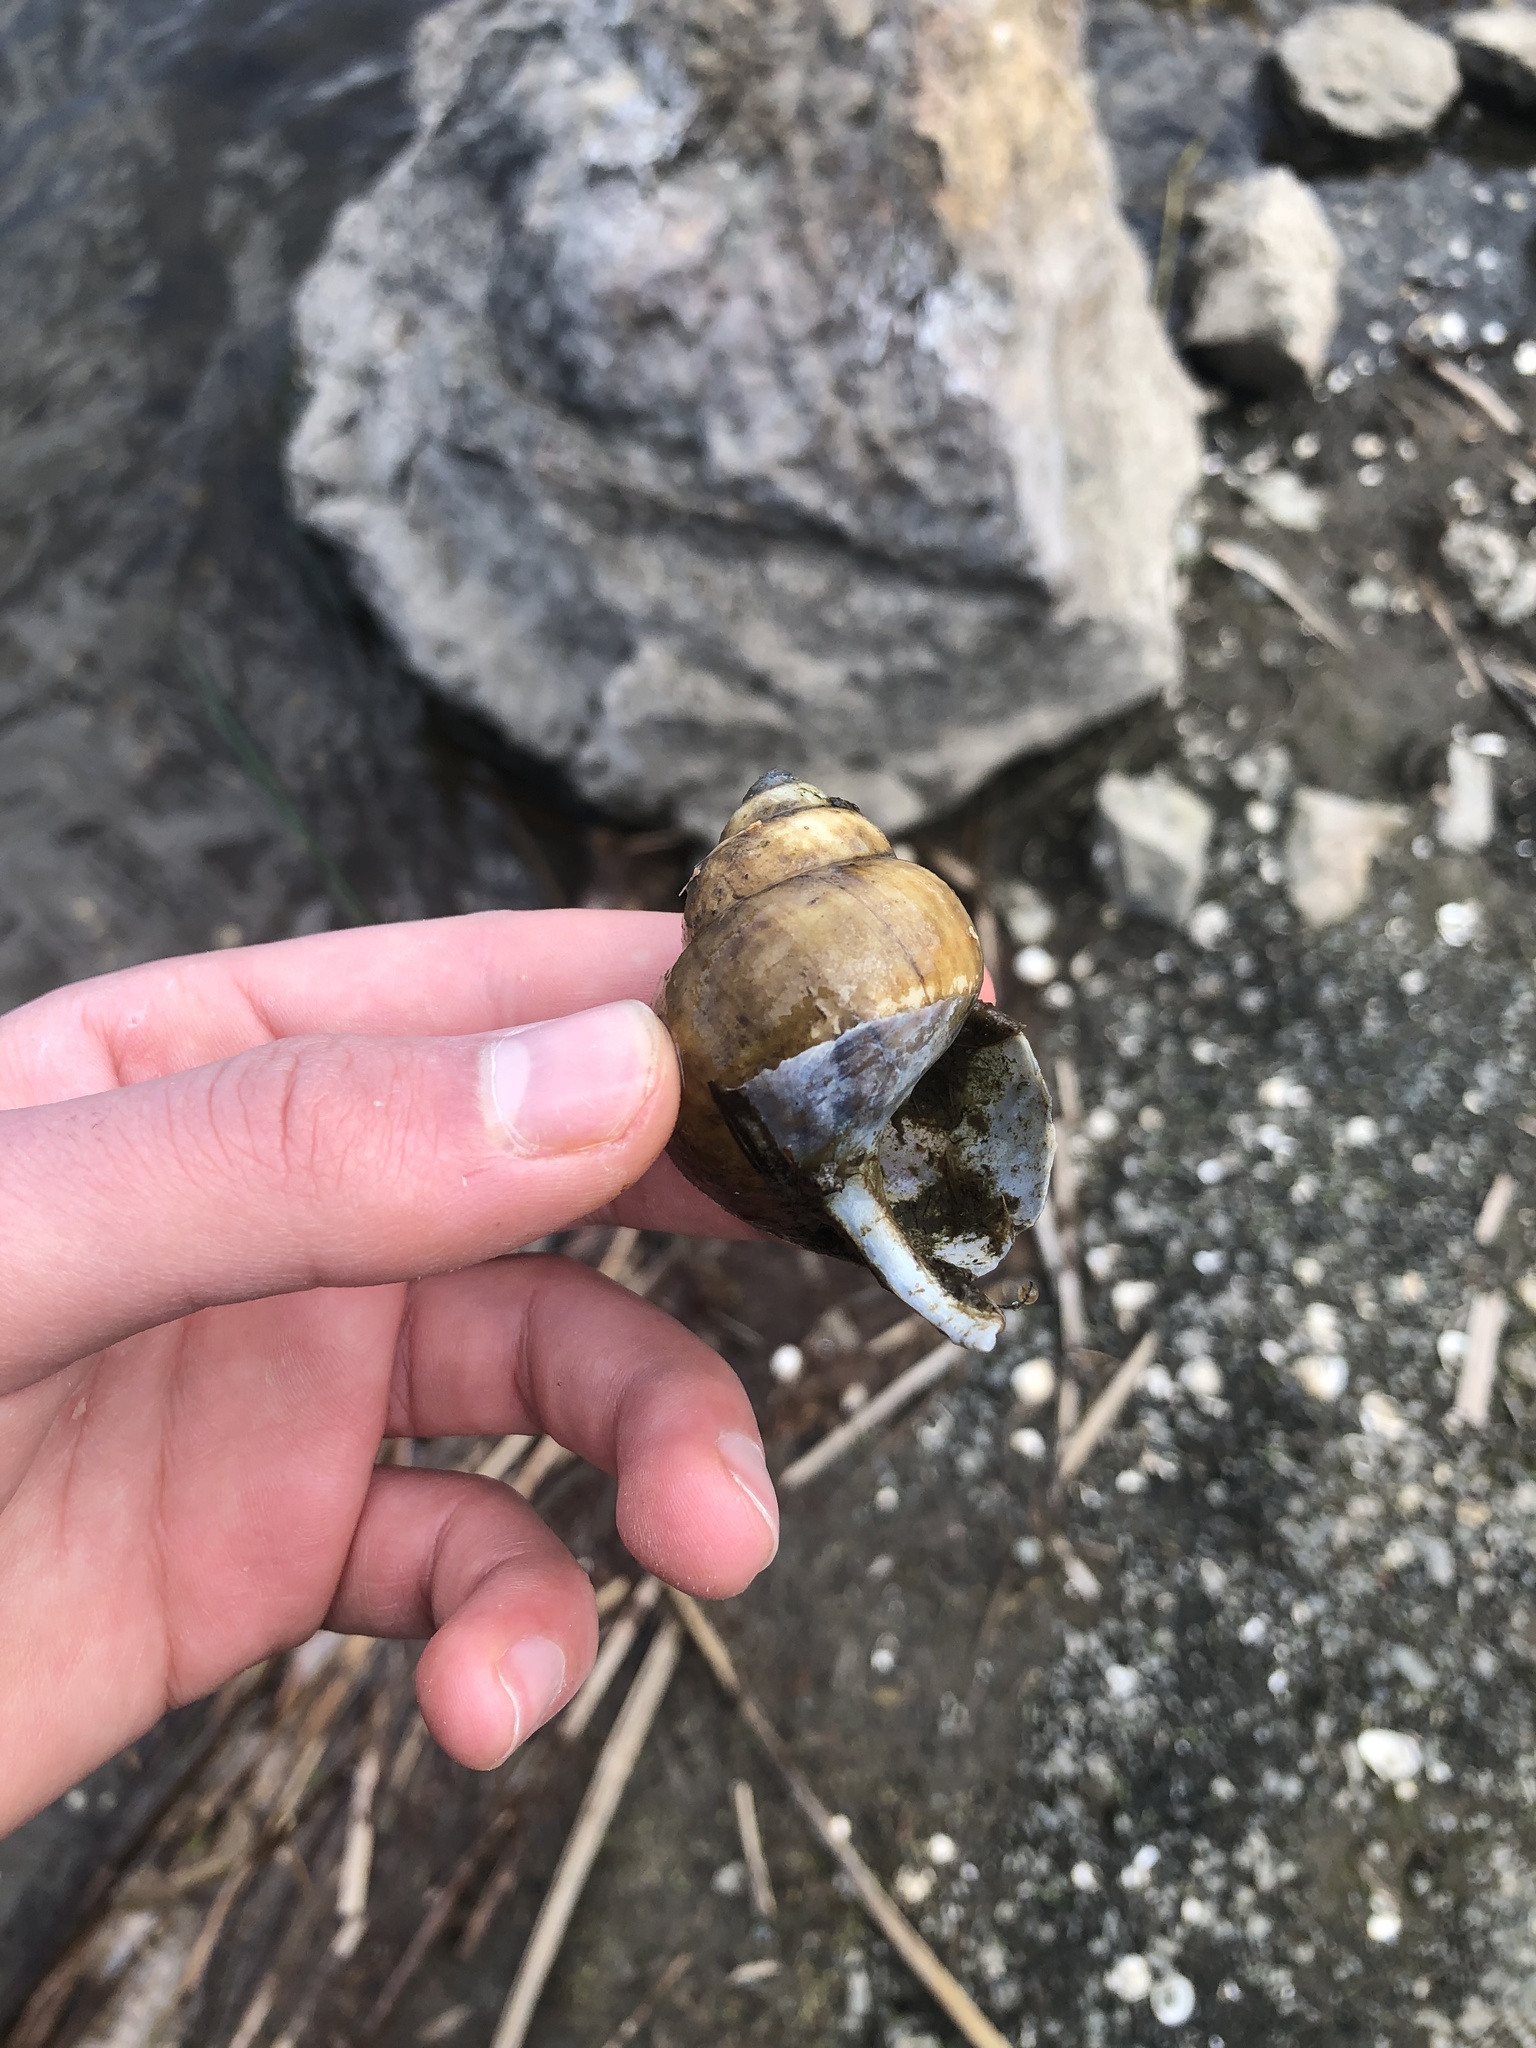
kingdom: Animalia
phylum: Mollusca
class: Gastropoda
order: Architaenioglossa
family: Viviparidae
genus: Cipangopaludina
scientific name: Cipangopaludina chinensis
